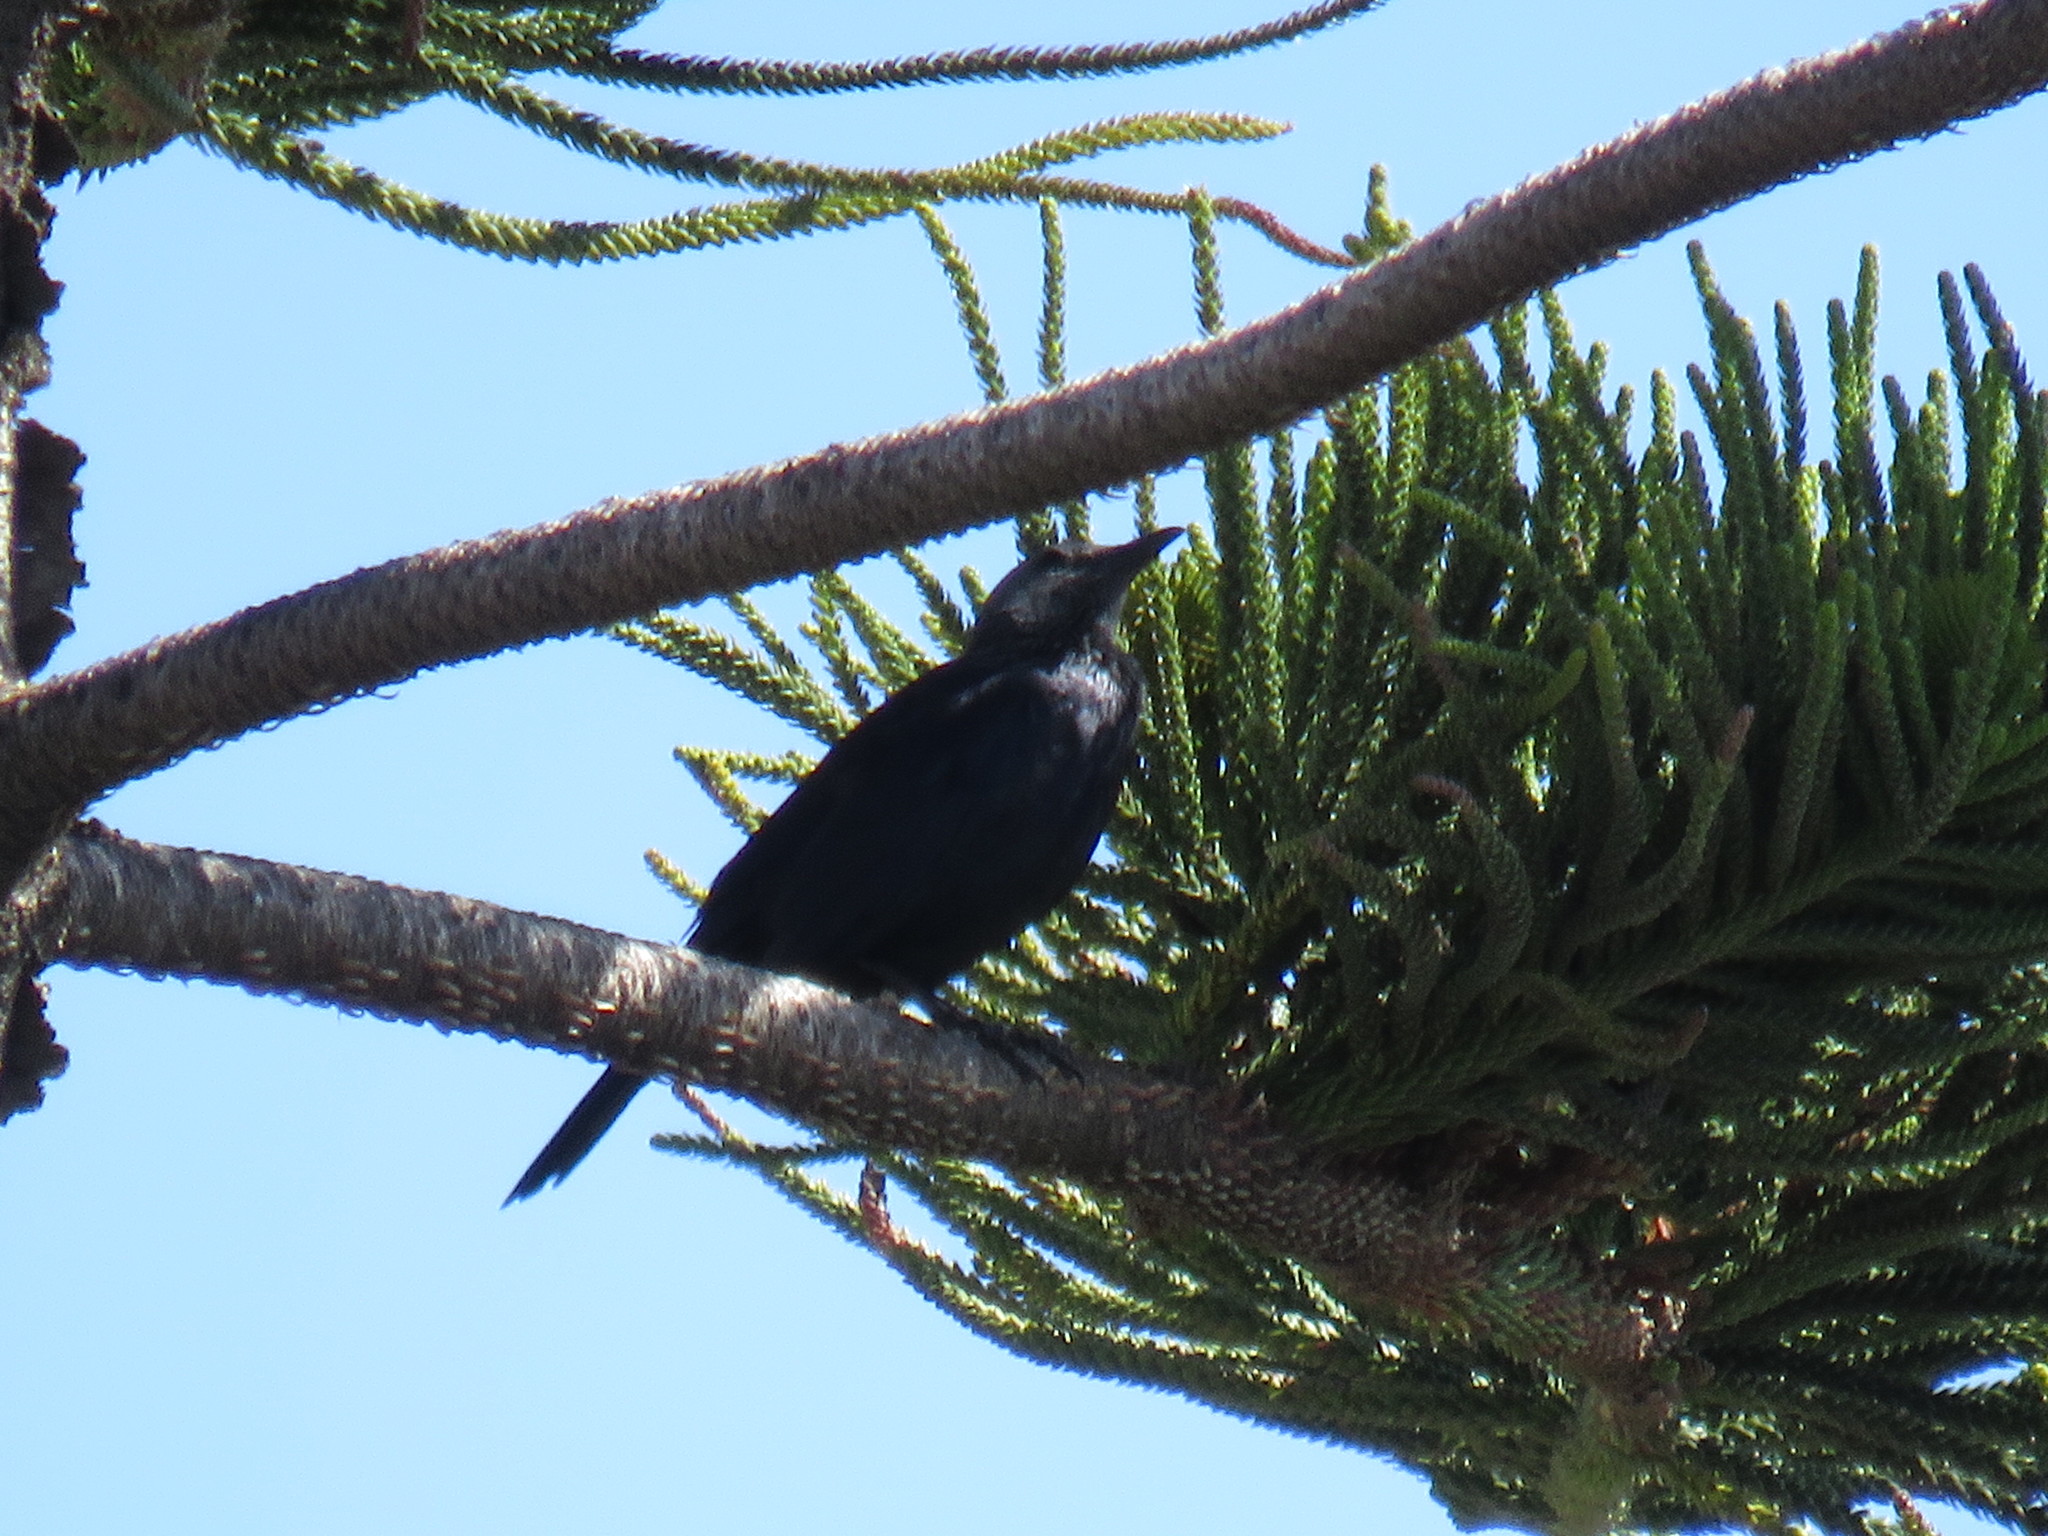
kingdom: Animalia
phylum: Chordata
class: Aves
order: Passeriformes
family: Sturnidae
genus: Onychognathus
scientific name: Onychognathus morio
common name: Red-winged starling
